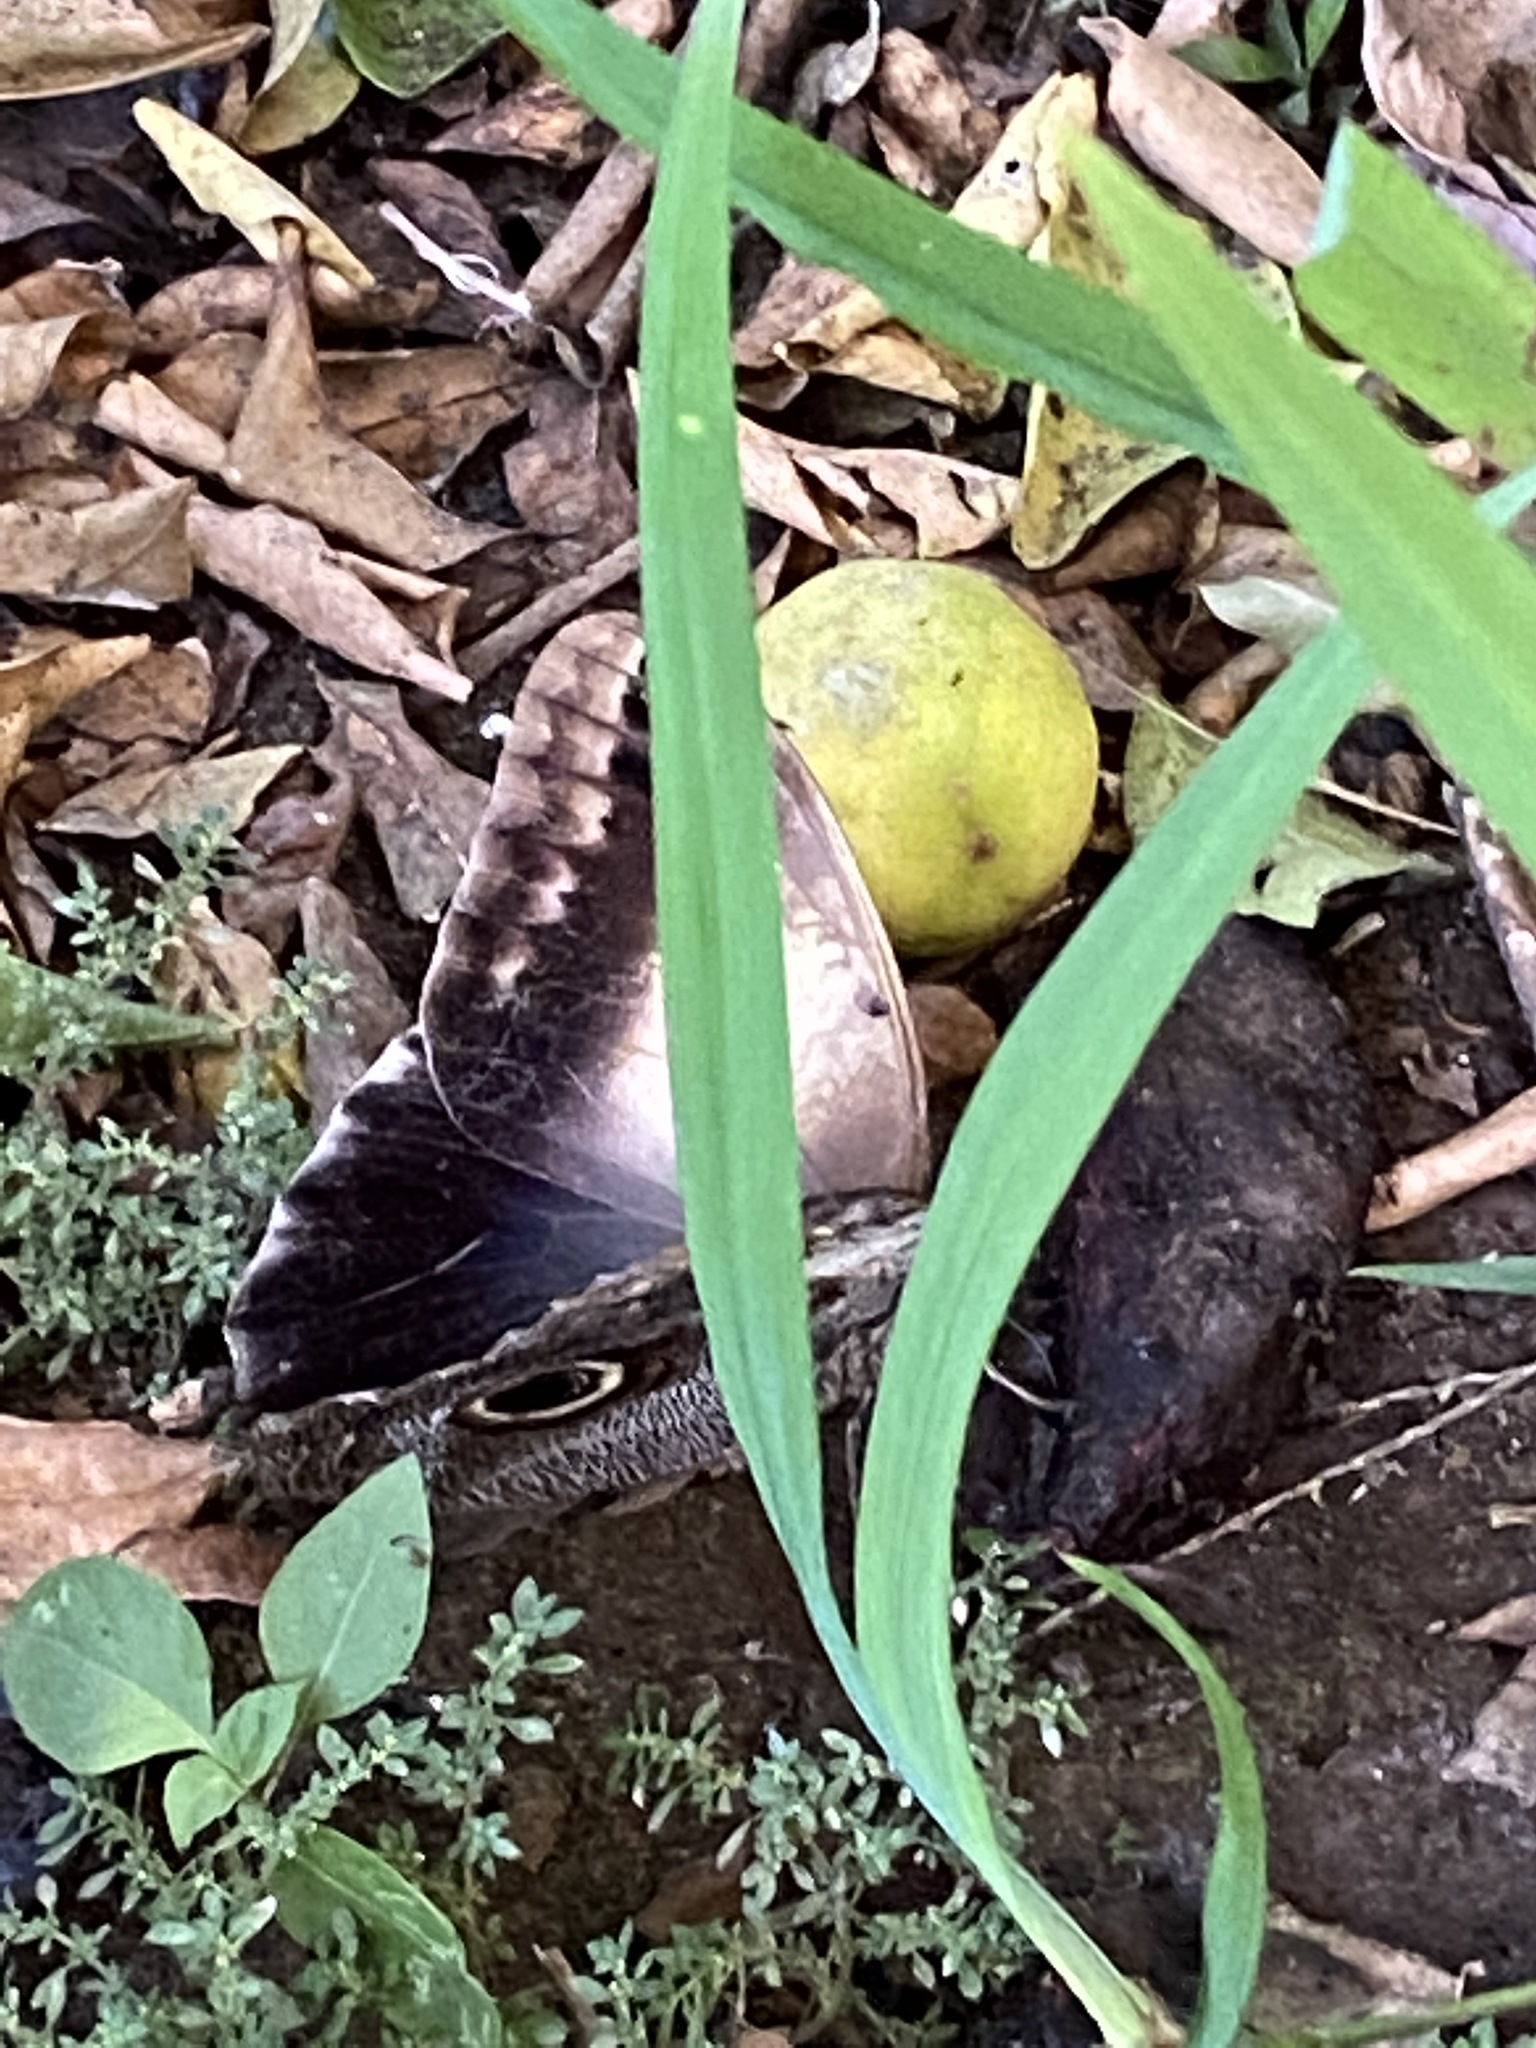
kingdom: Animalia
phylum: Arthropoda
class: Insecta
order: Lepidoptera
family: Nymphalidae
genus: Caligo
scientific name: Caligo telamonius
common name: Pale owl-butterfly
